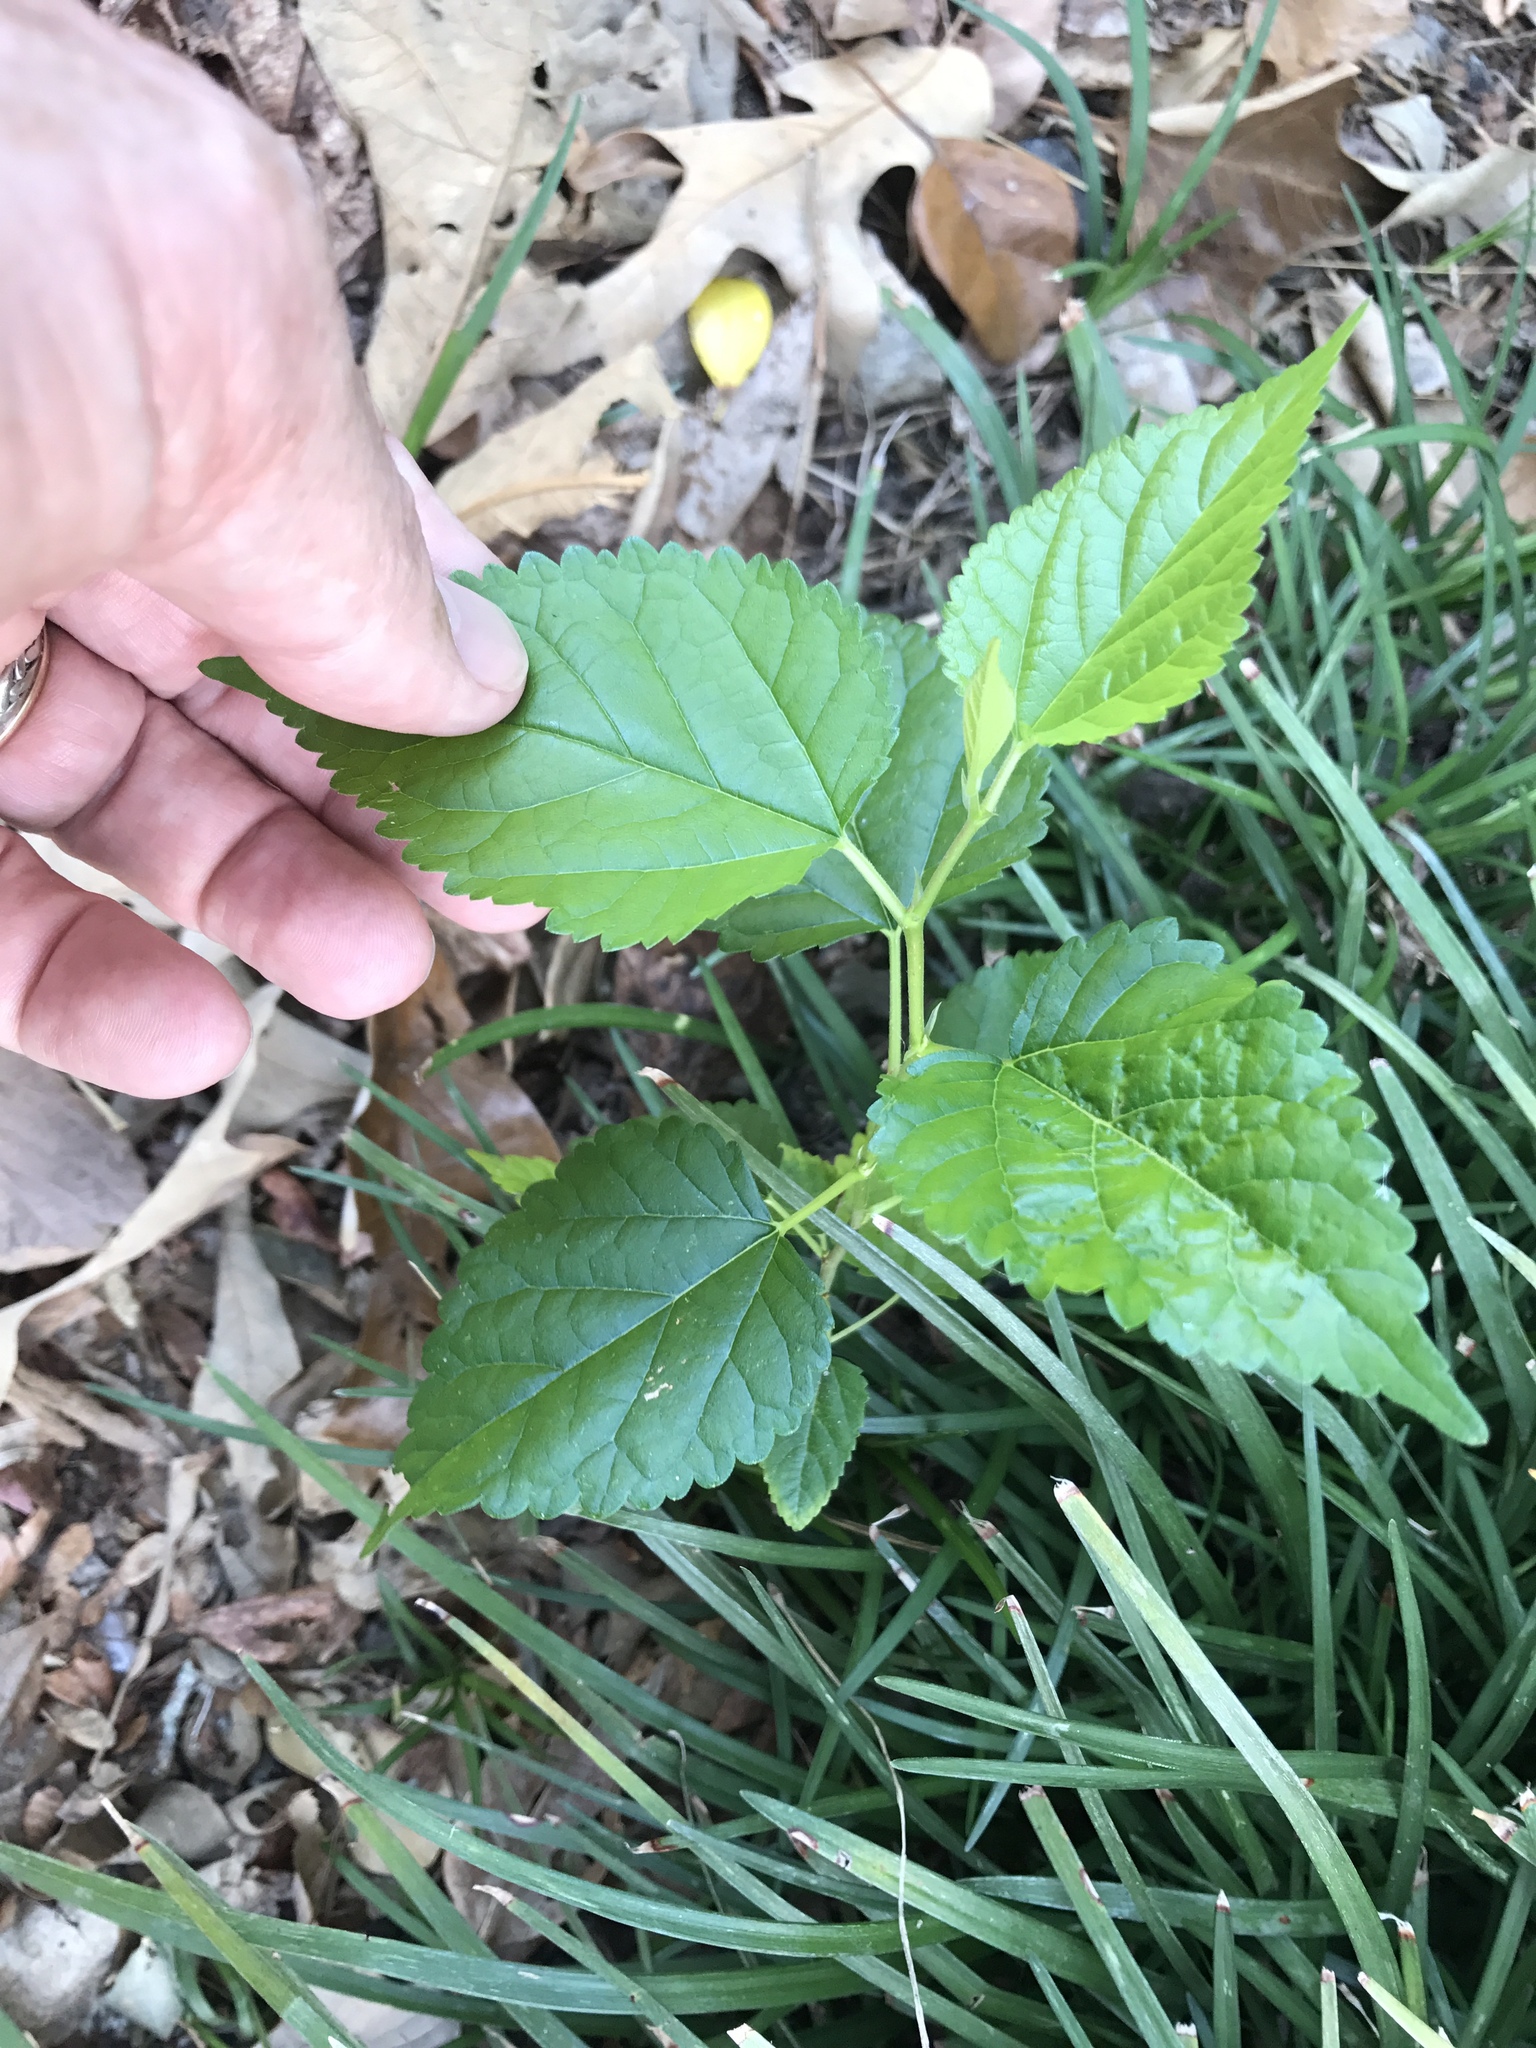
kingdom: Plantae
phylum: Tracheophyta
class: Magnoliopsida
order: Rosales
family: Moraceae
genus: Fatoua
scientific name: Fatoua villosa
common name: Hairy crabweed
